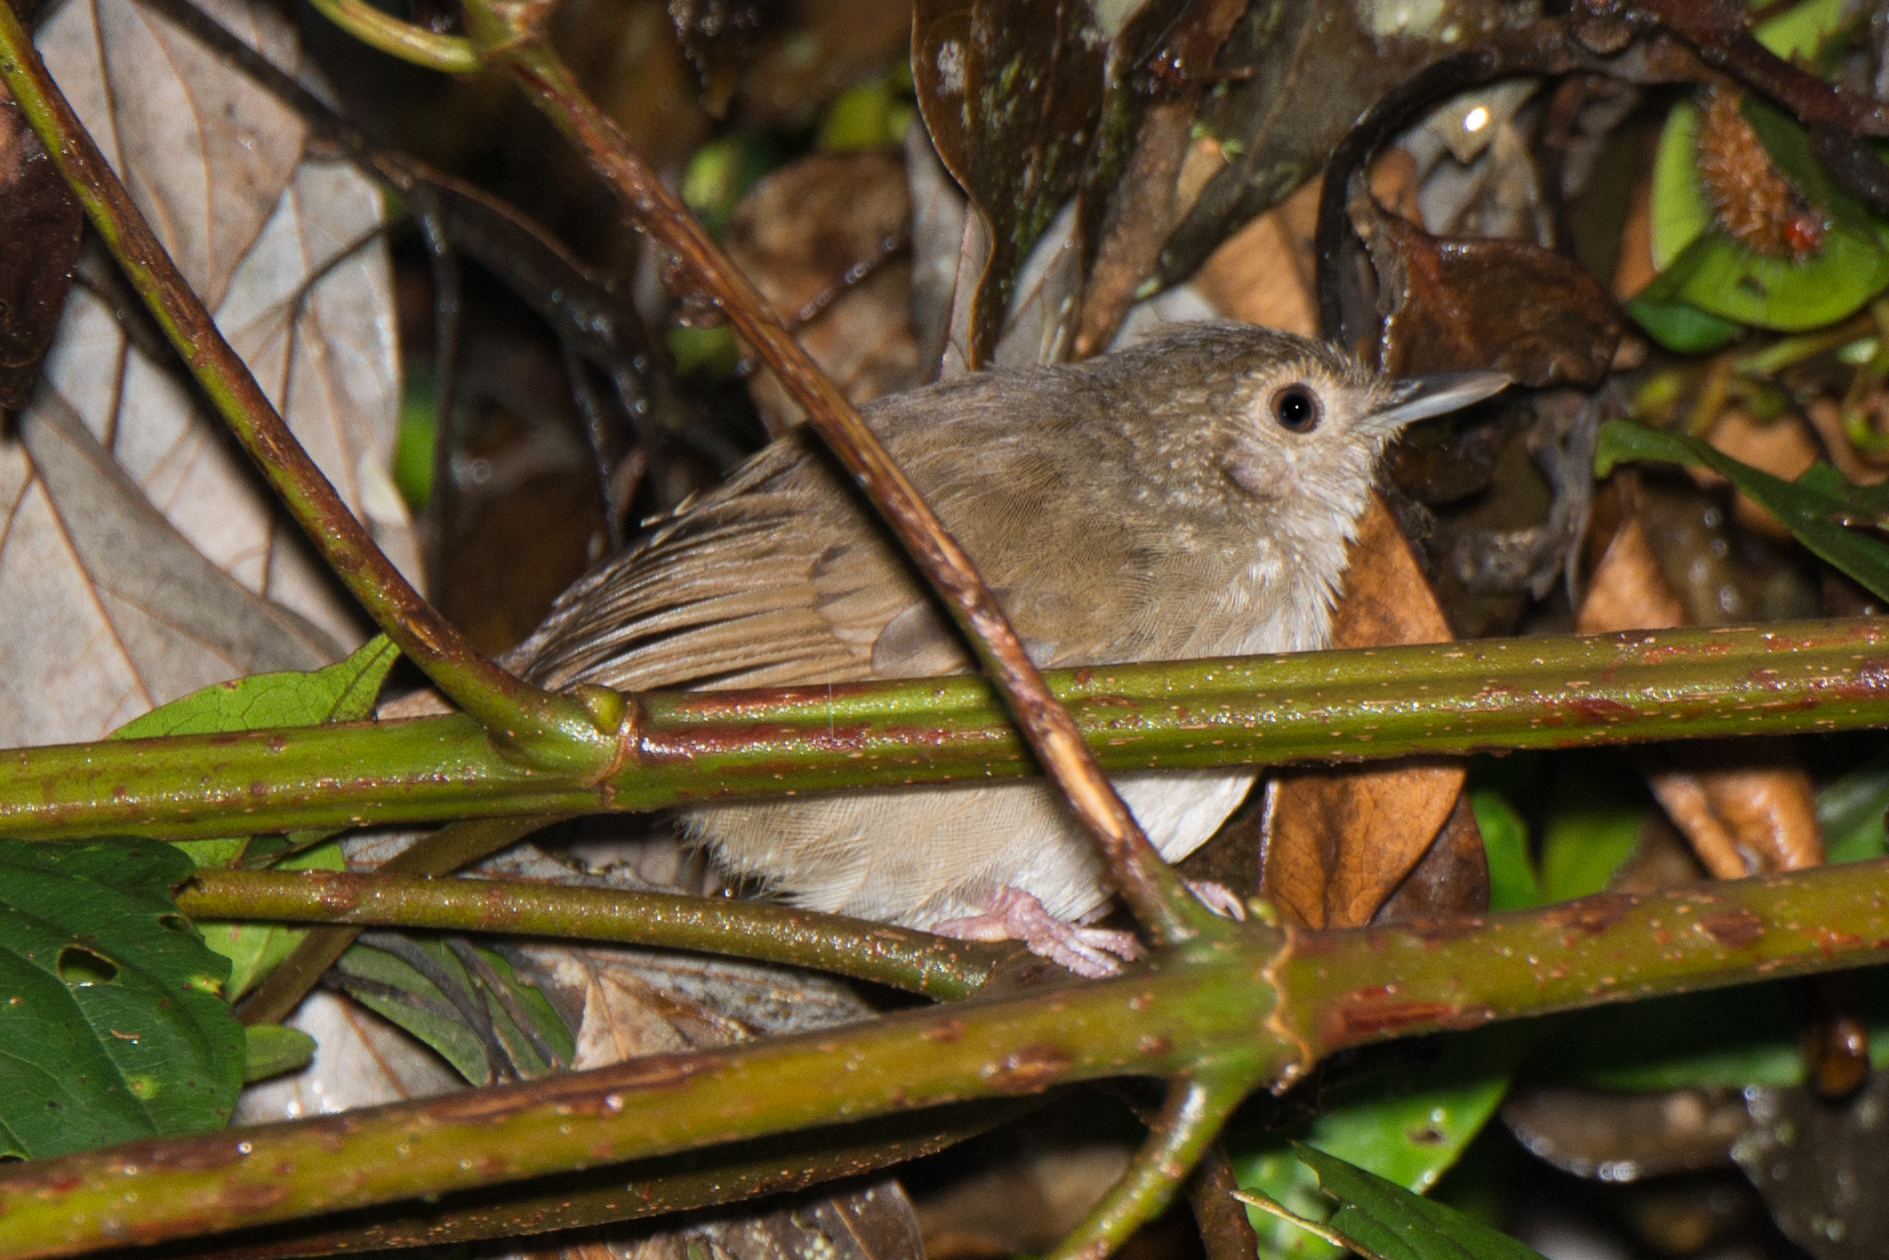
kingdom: Animalia
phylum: Chordata
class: Aves
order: Passeriformes
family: Pellorneidae
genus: Trichastoma
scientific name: Trichastoma celebense
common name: Sulawesi babbler
